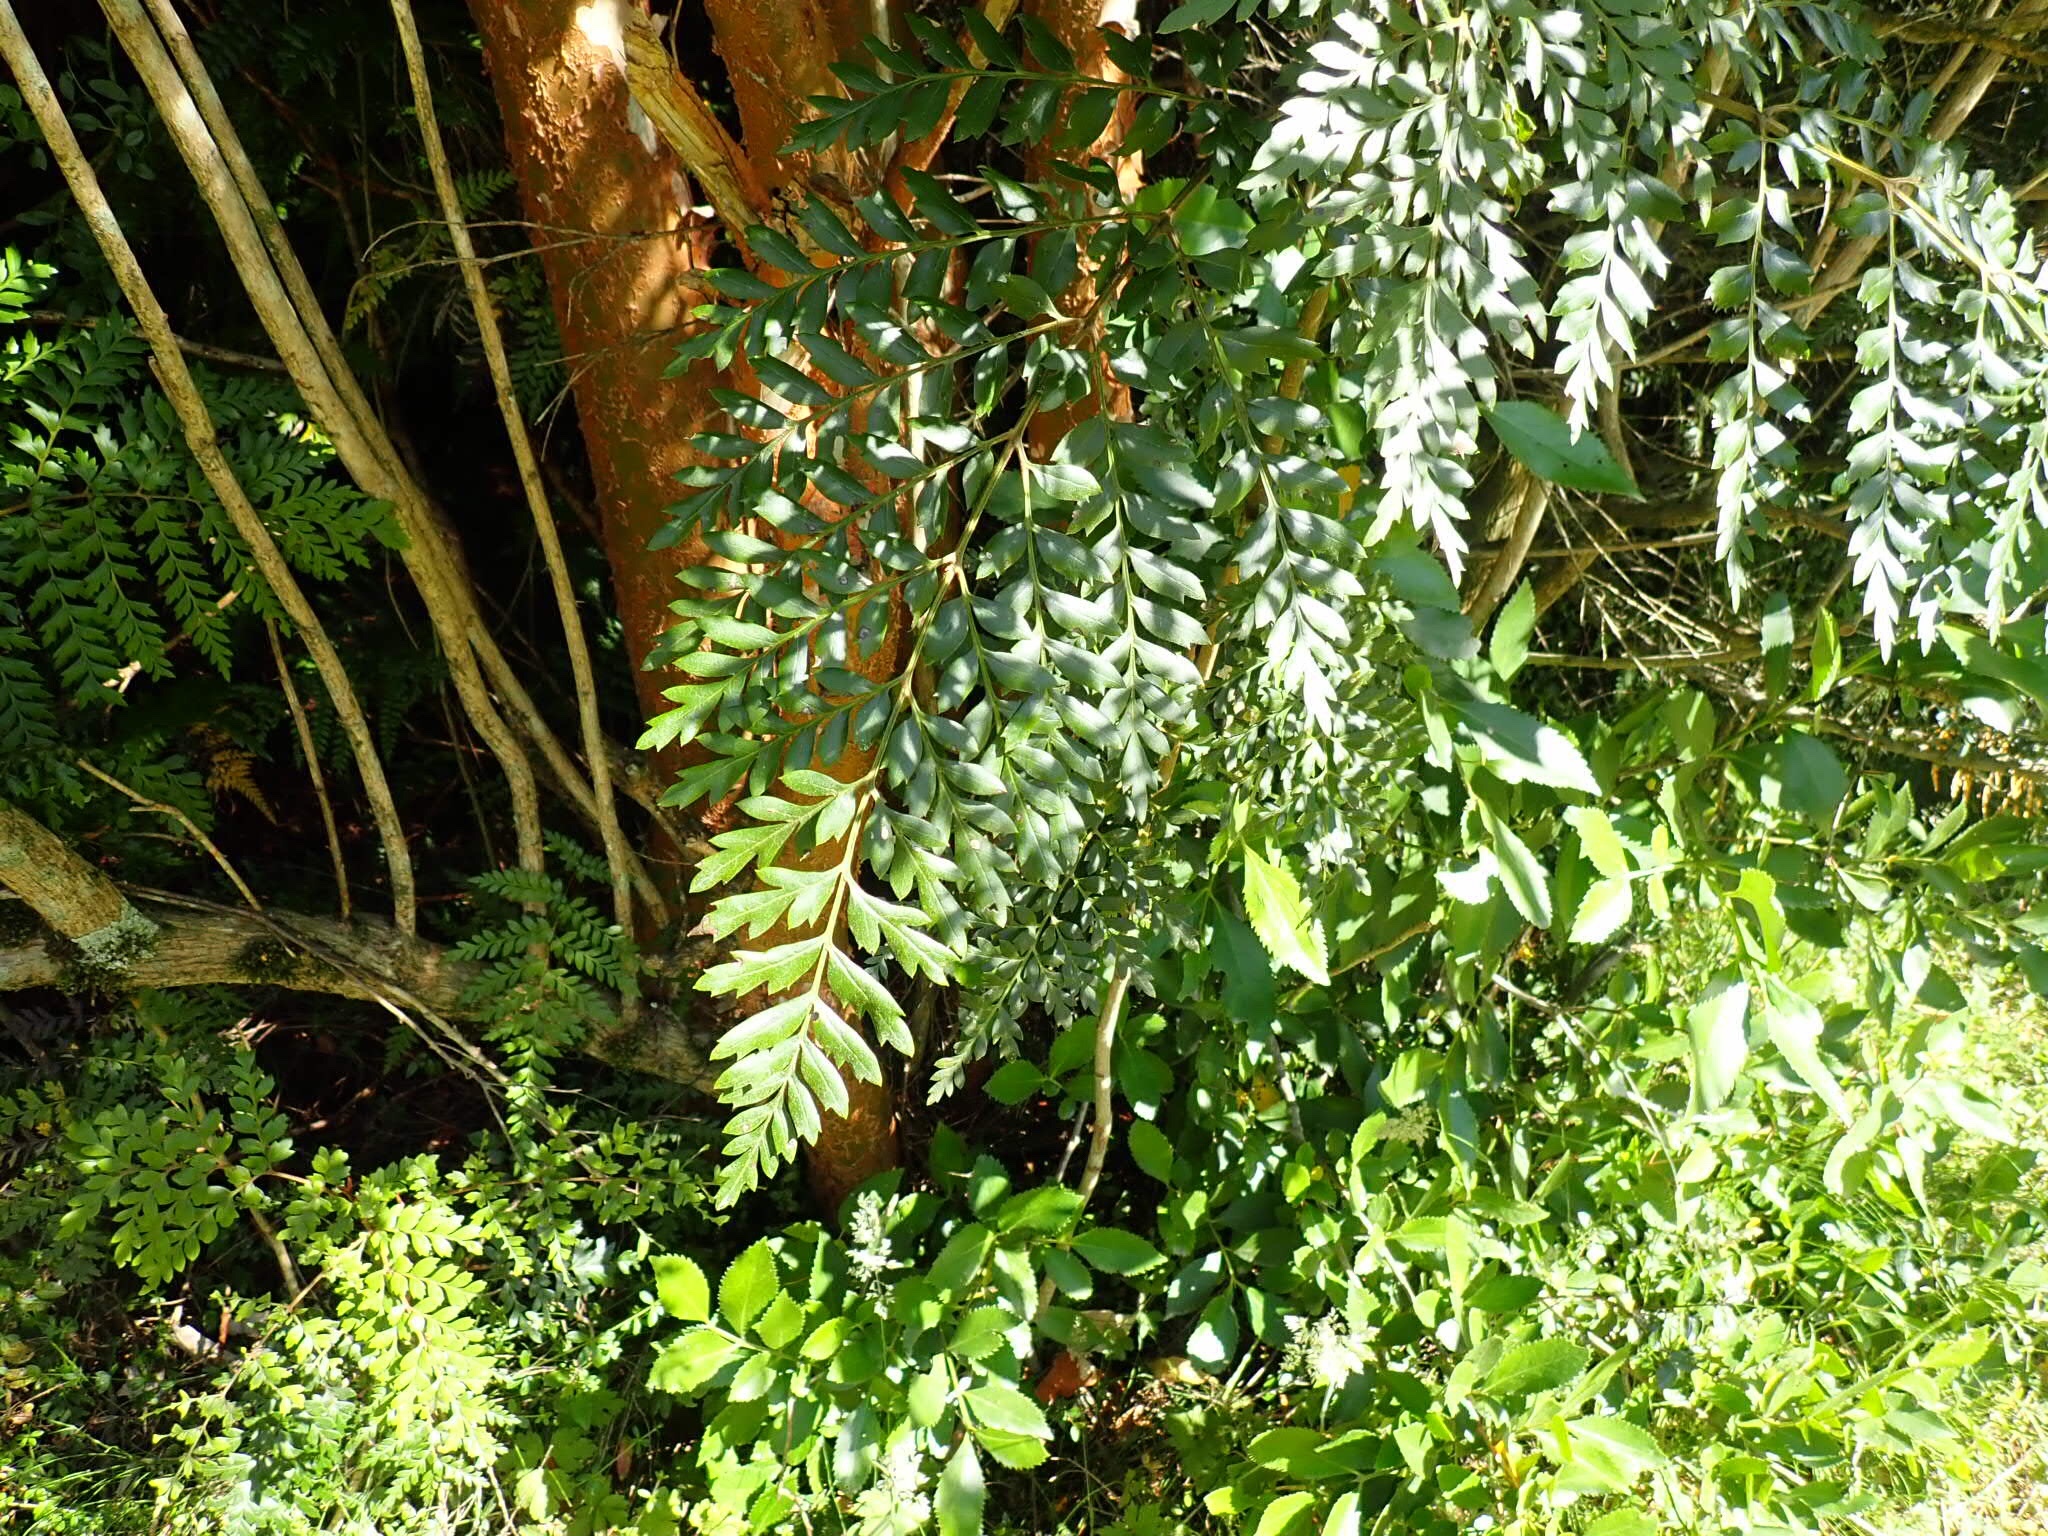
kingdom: Plantae
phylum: Tracheophyta
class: Magnoliopsida
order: Proteales
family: Proteaceae
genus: Lomatia
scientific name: Lomatia ferruginea
